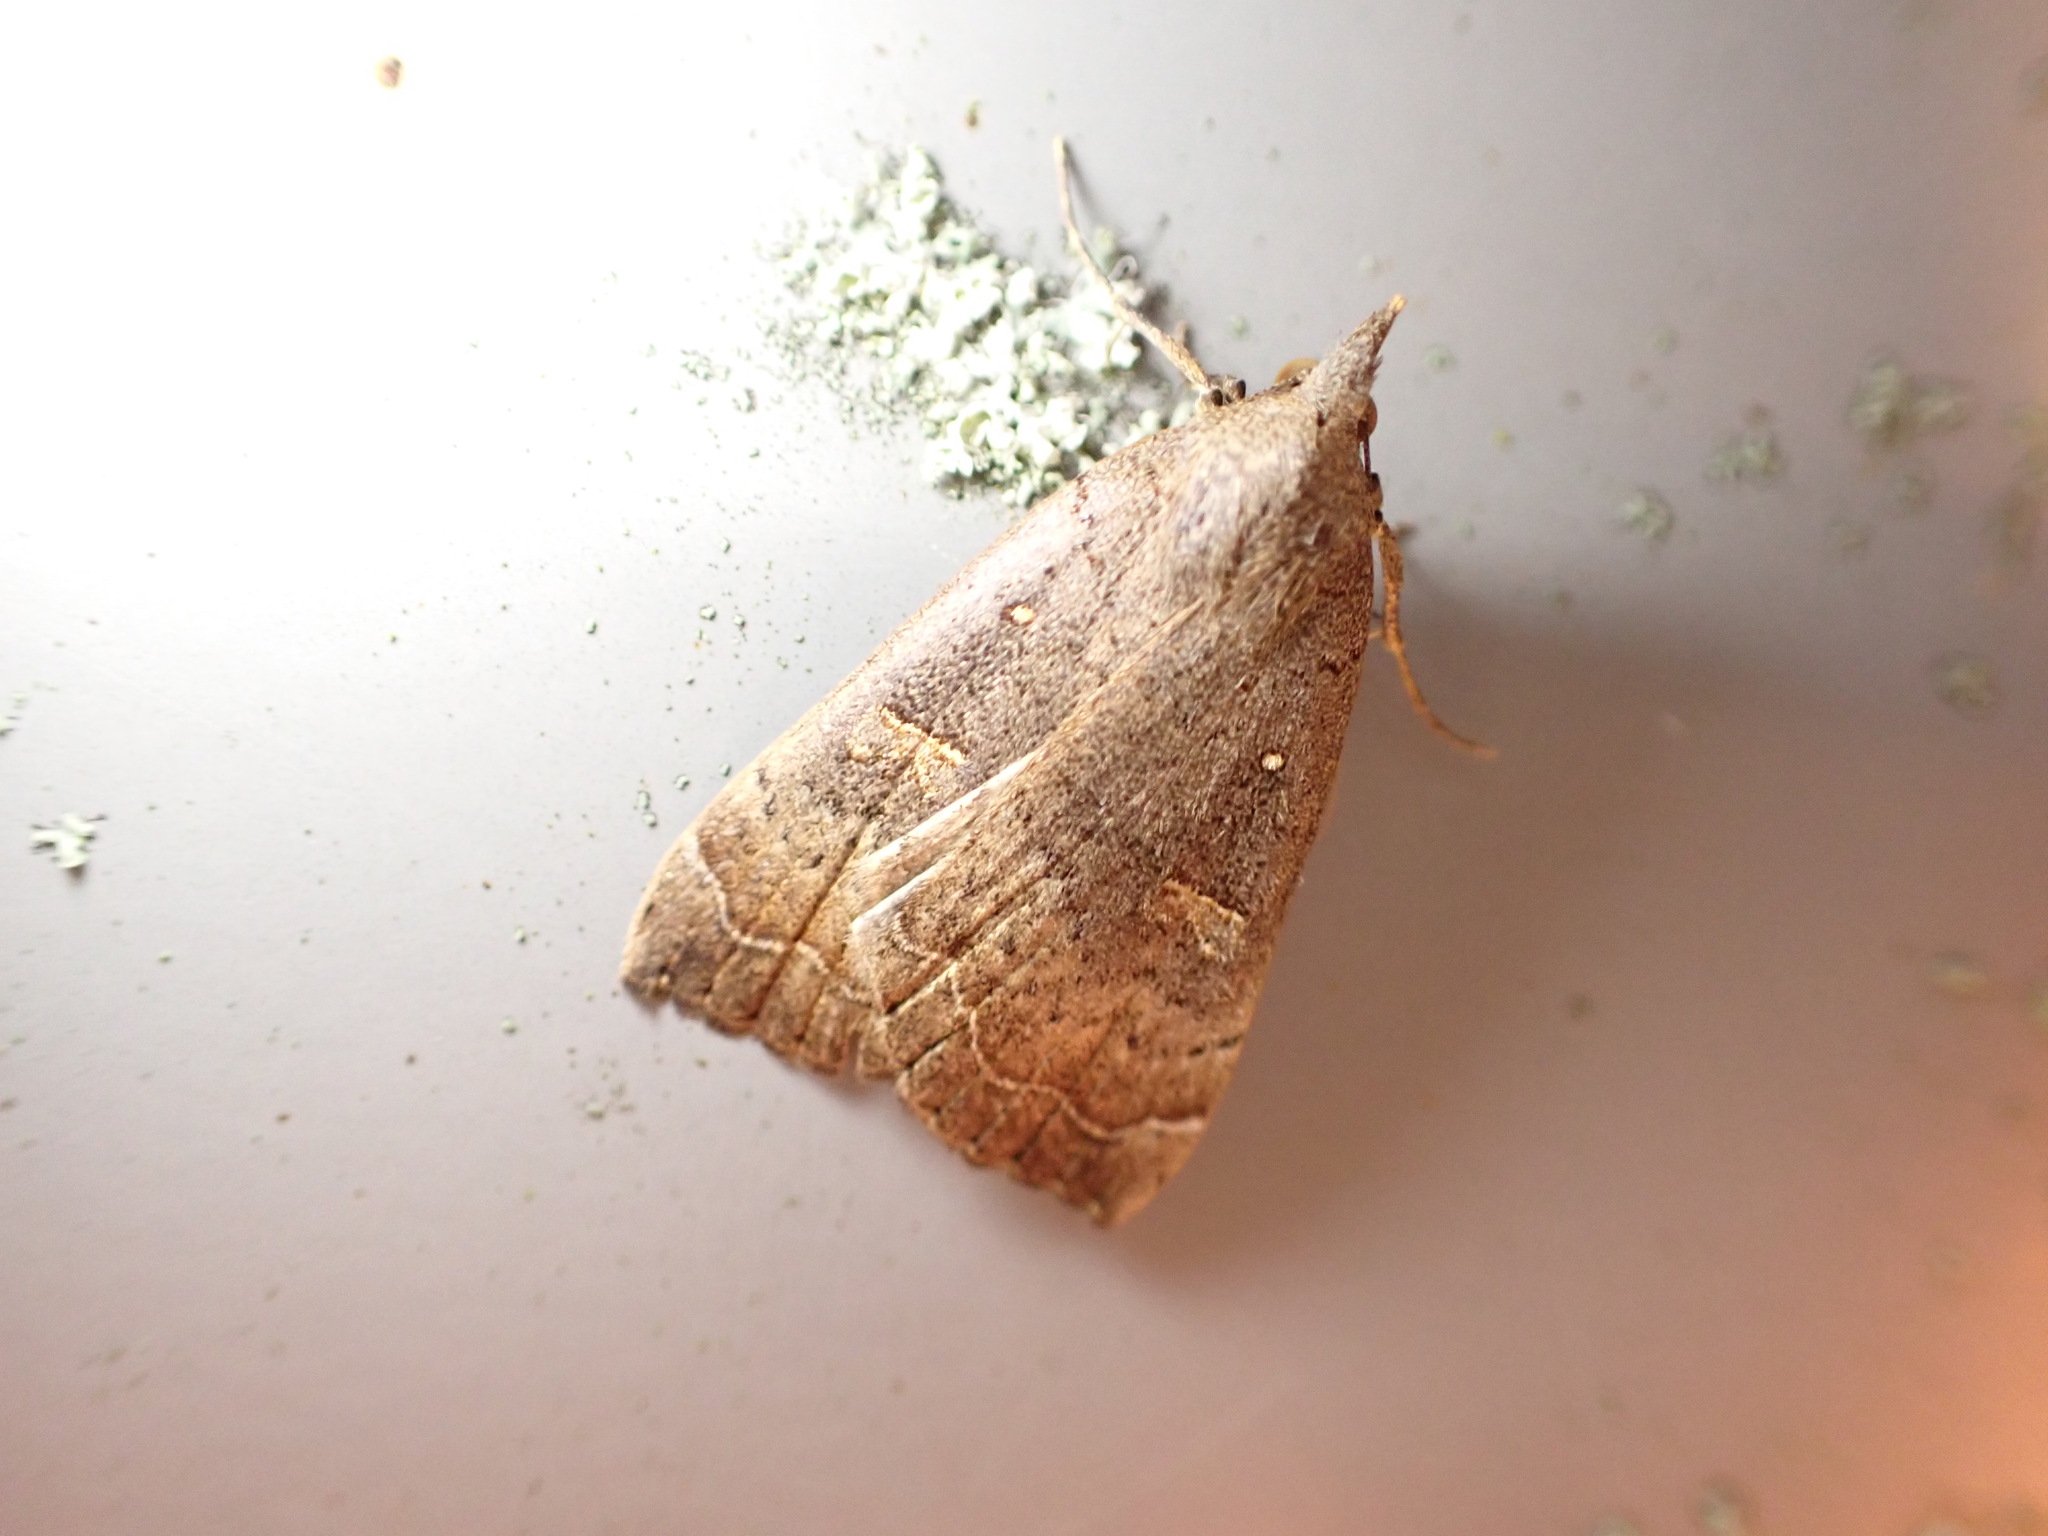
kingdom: Animalia
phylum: Arthropoda
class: Insecta
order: Lepidoptera
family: Erebidae
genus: Rhapsa
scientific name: Rhapsa scotosialis
